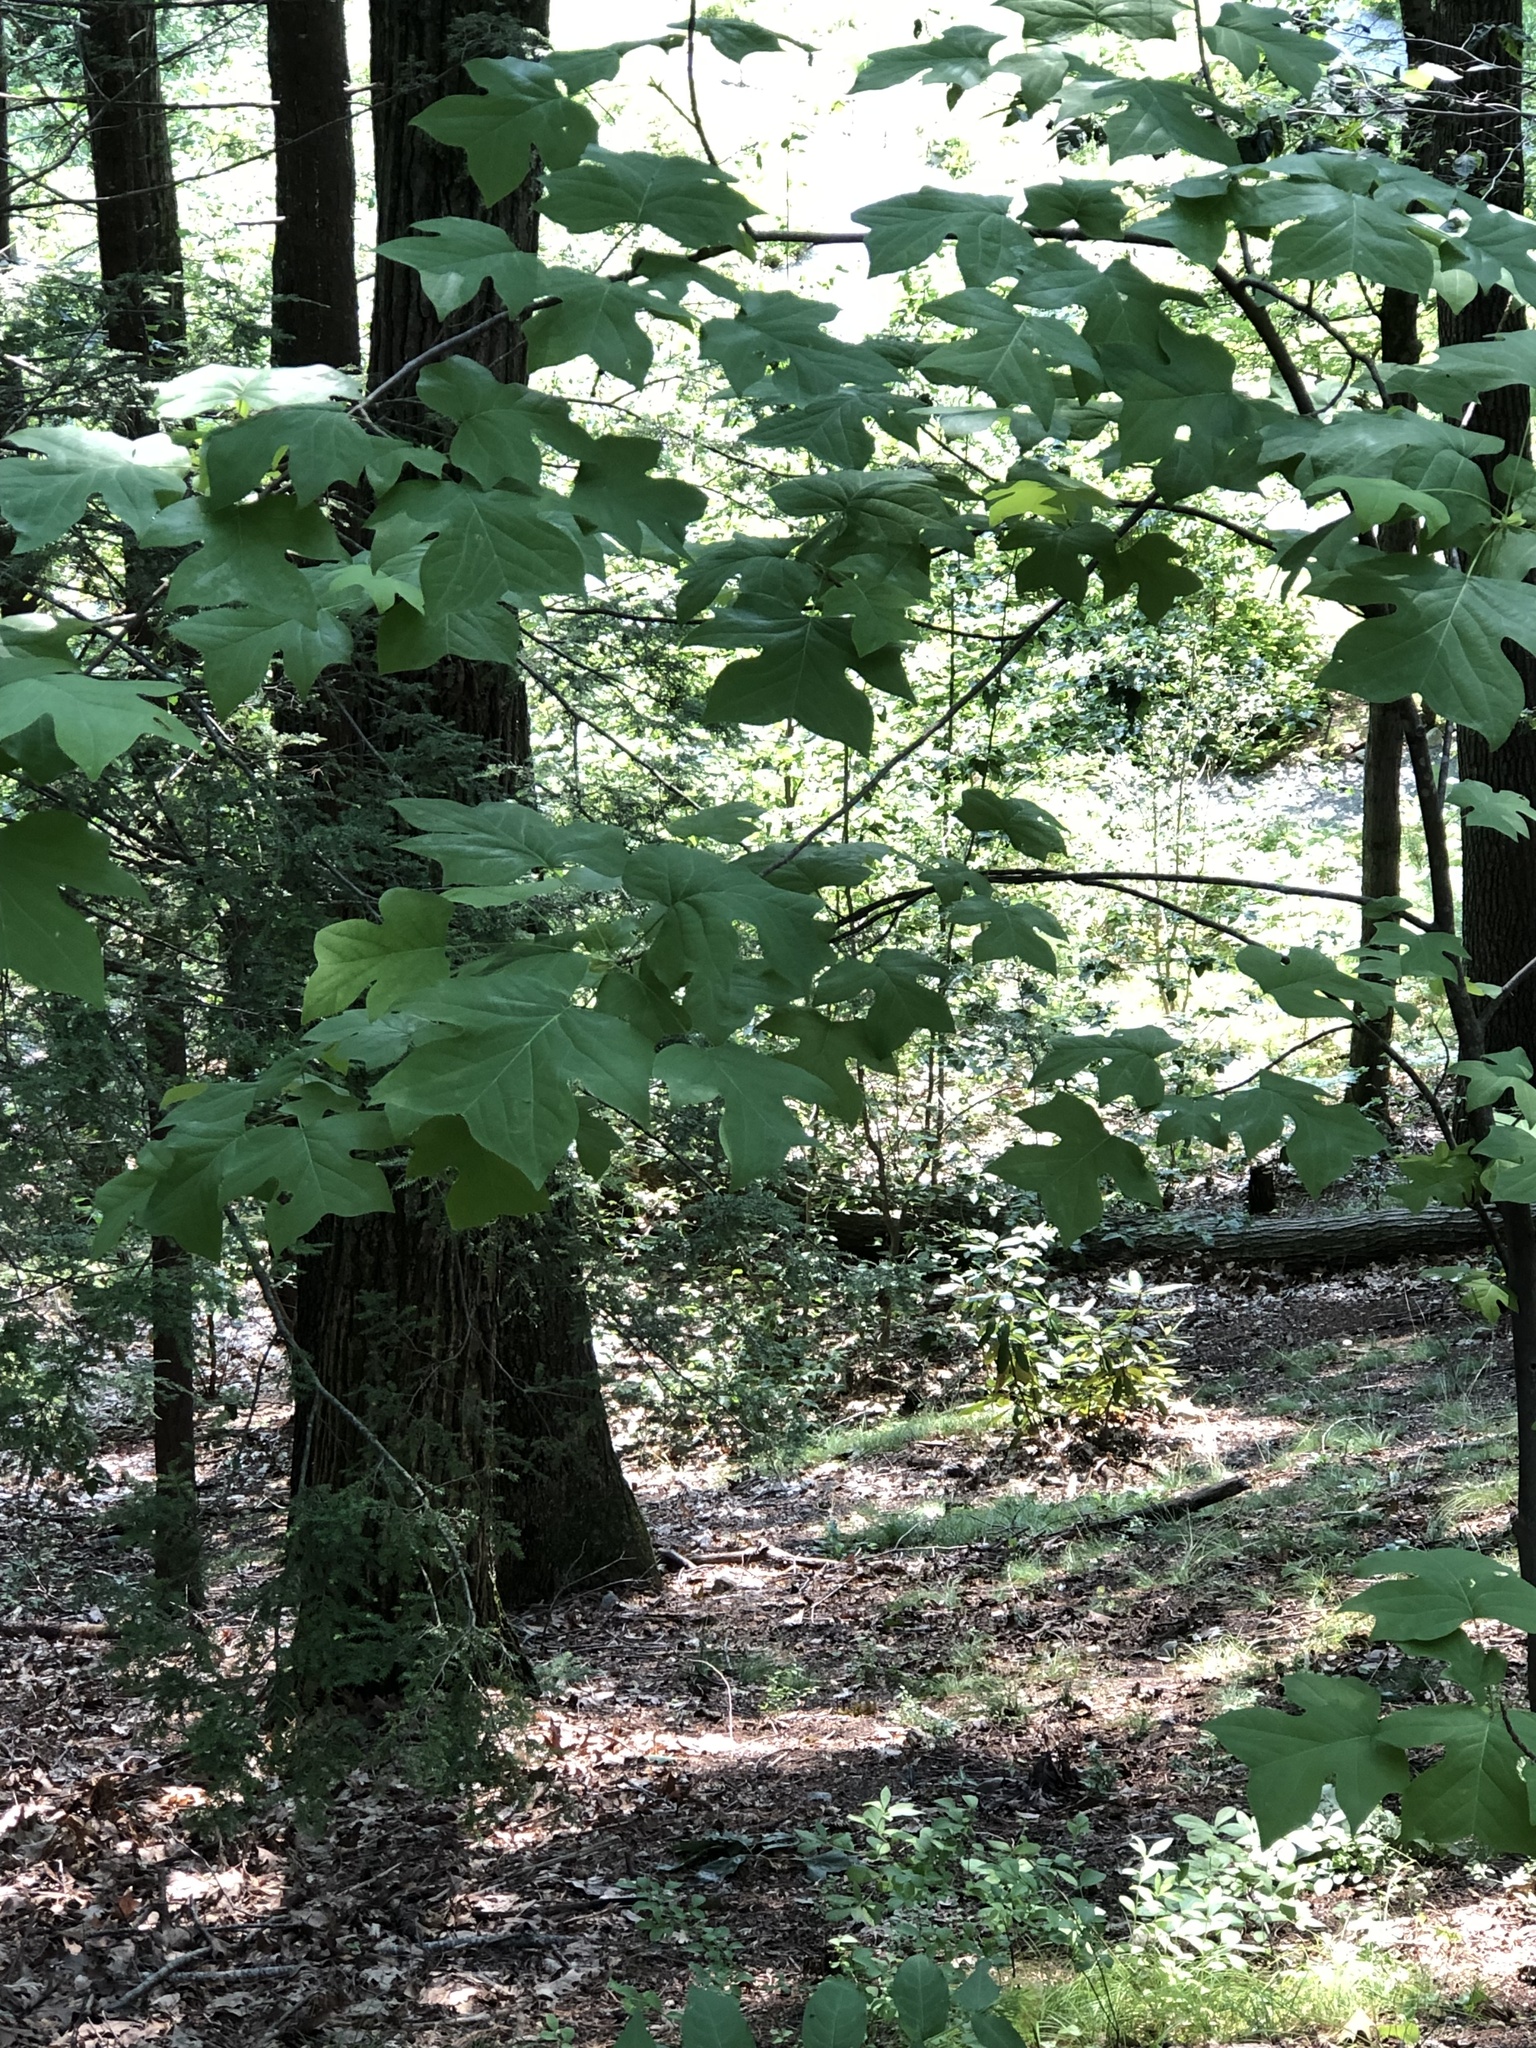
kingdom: Plantae
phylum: Tracheophyta
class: Magnoliopsida
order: Magnoliales
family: Magnoliaceae
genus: Liriodendron
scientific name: Liriodendron tulipifera
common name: Tulip tree
